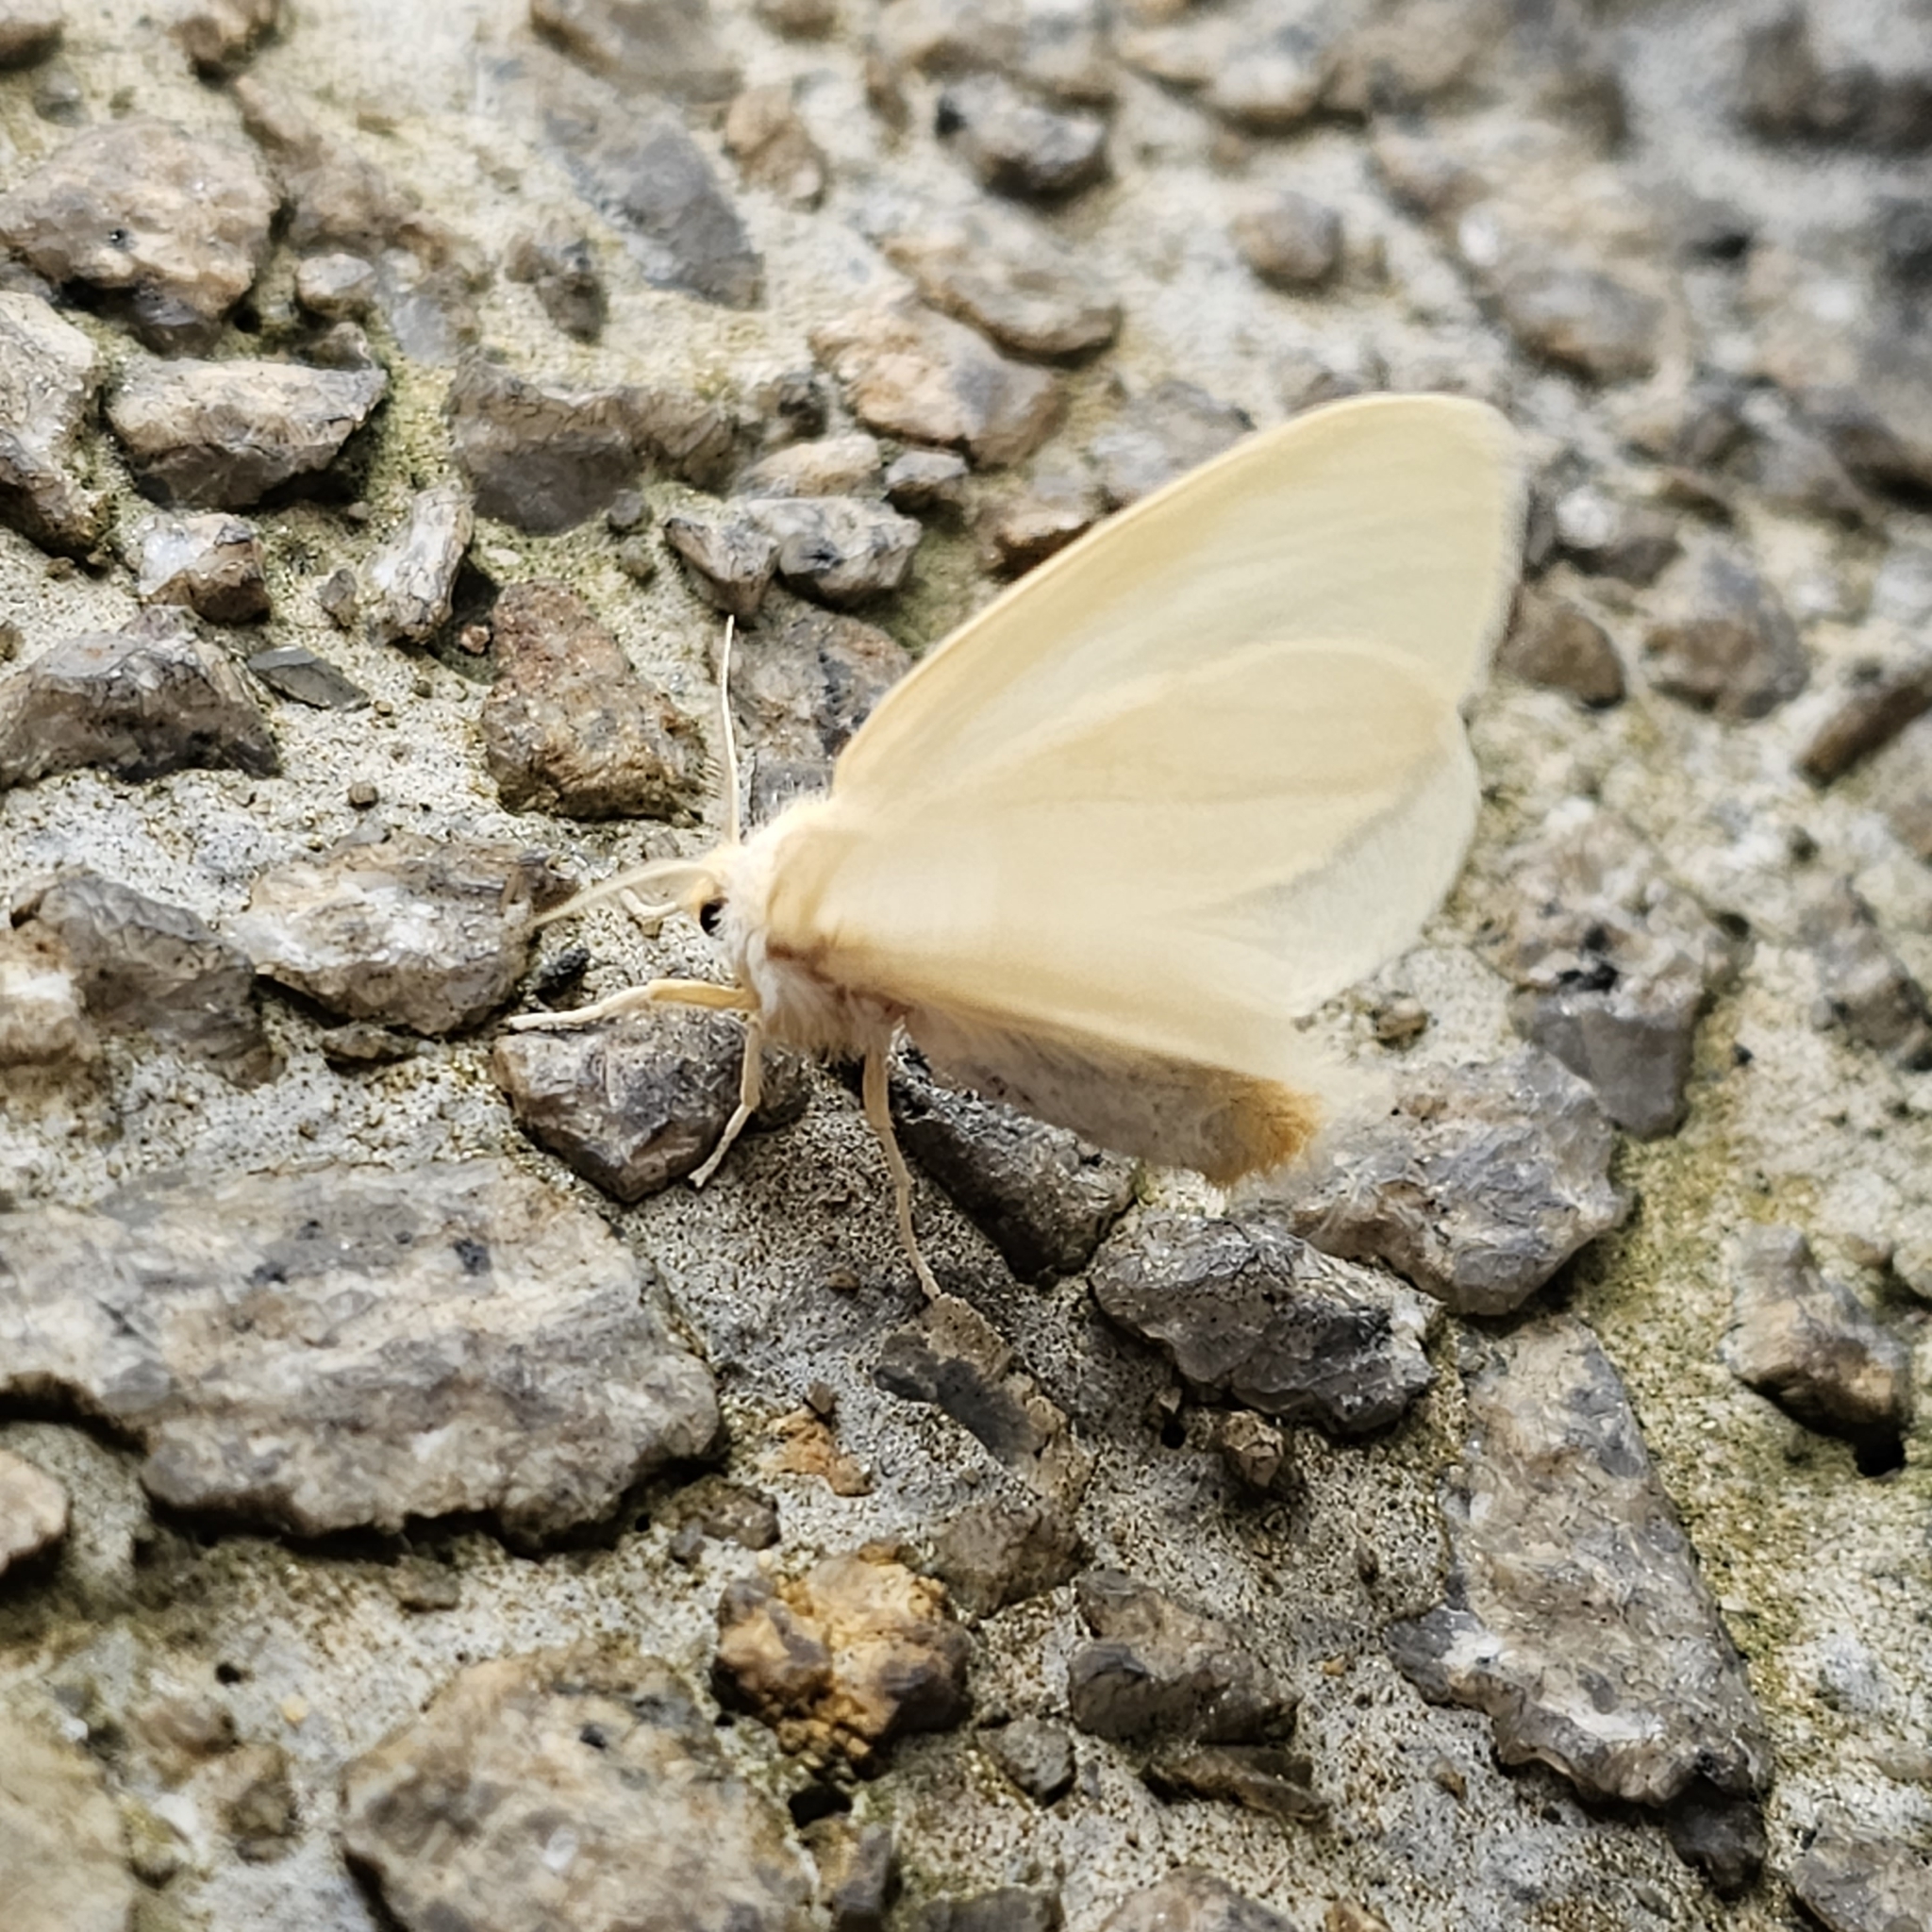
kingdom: Animalia
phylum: Arthropoda
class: Insecta
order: Lepidoptera
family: Erebidae
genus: Perina
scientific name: Perina sunda
